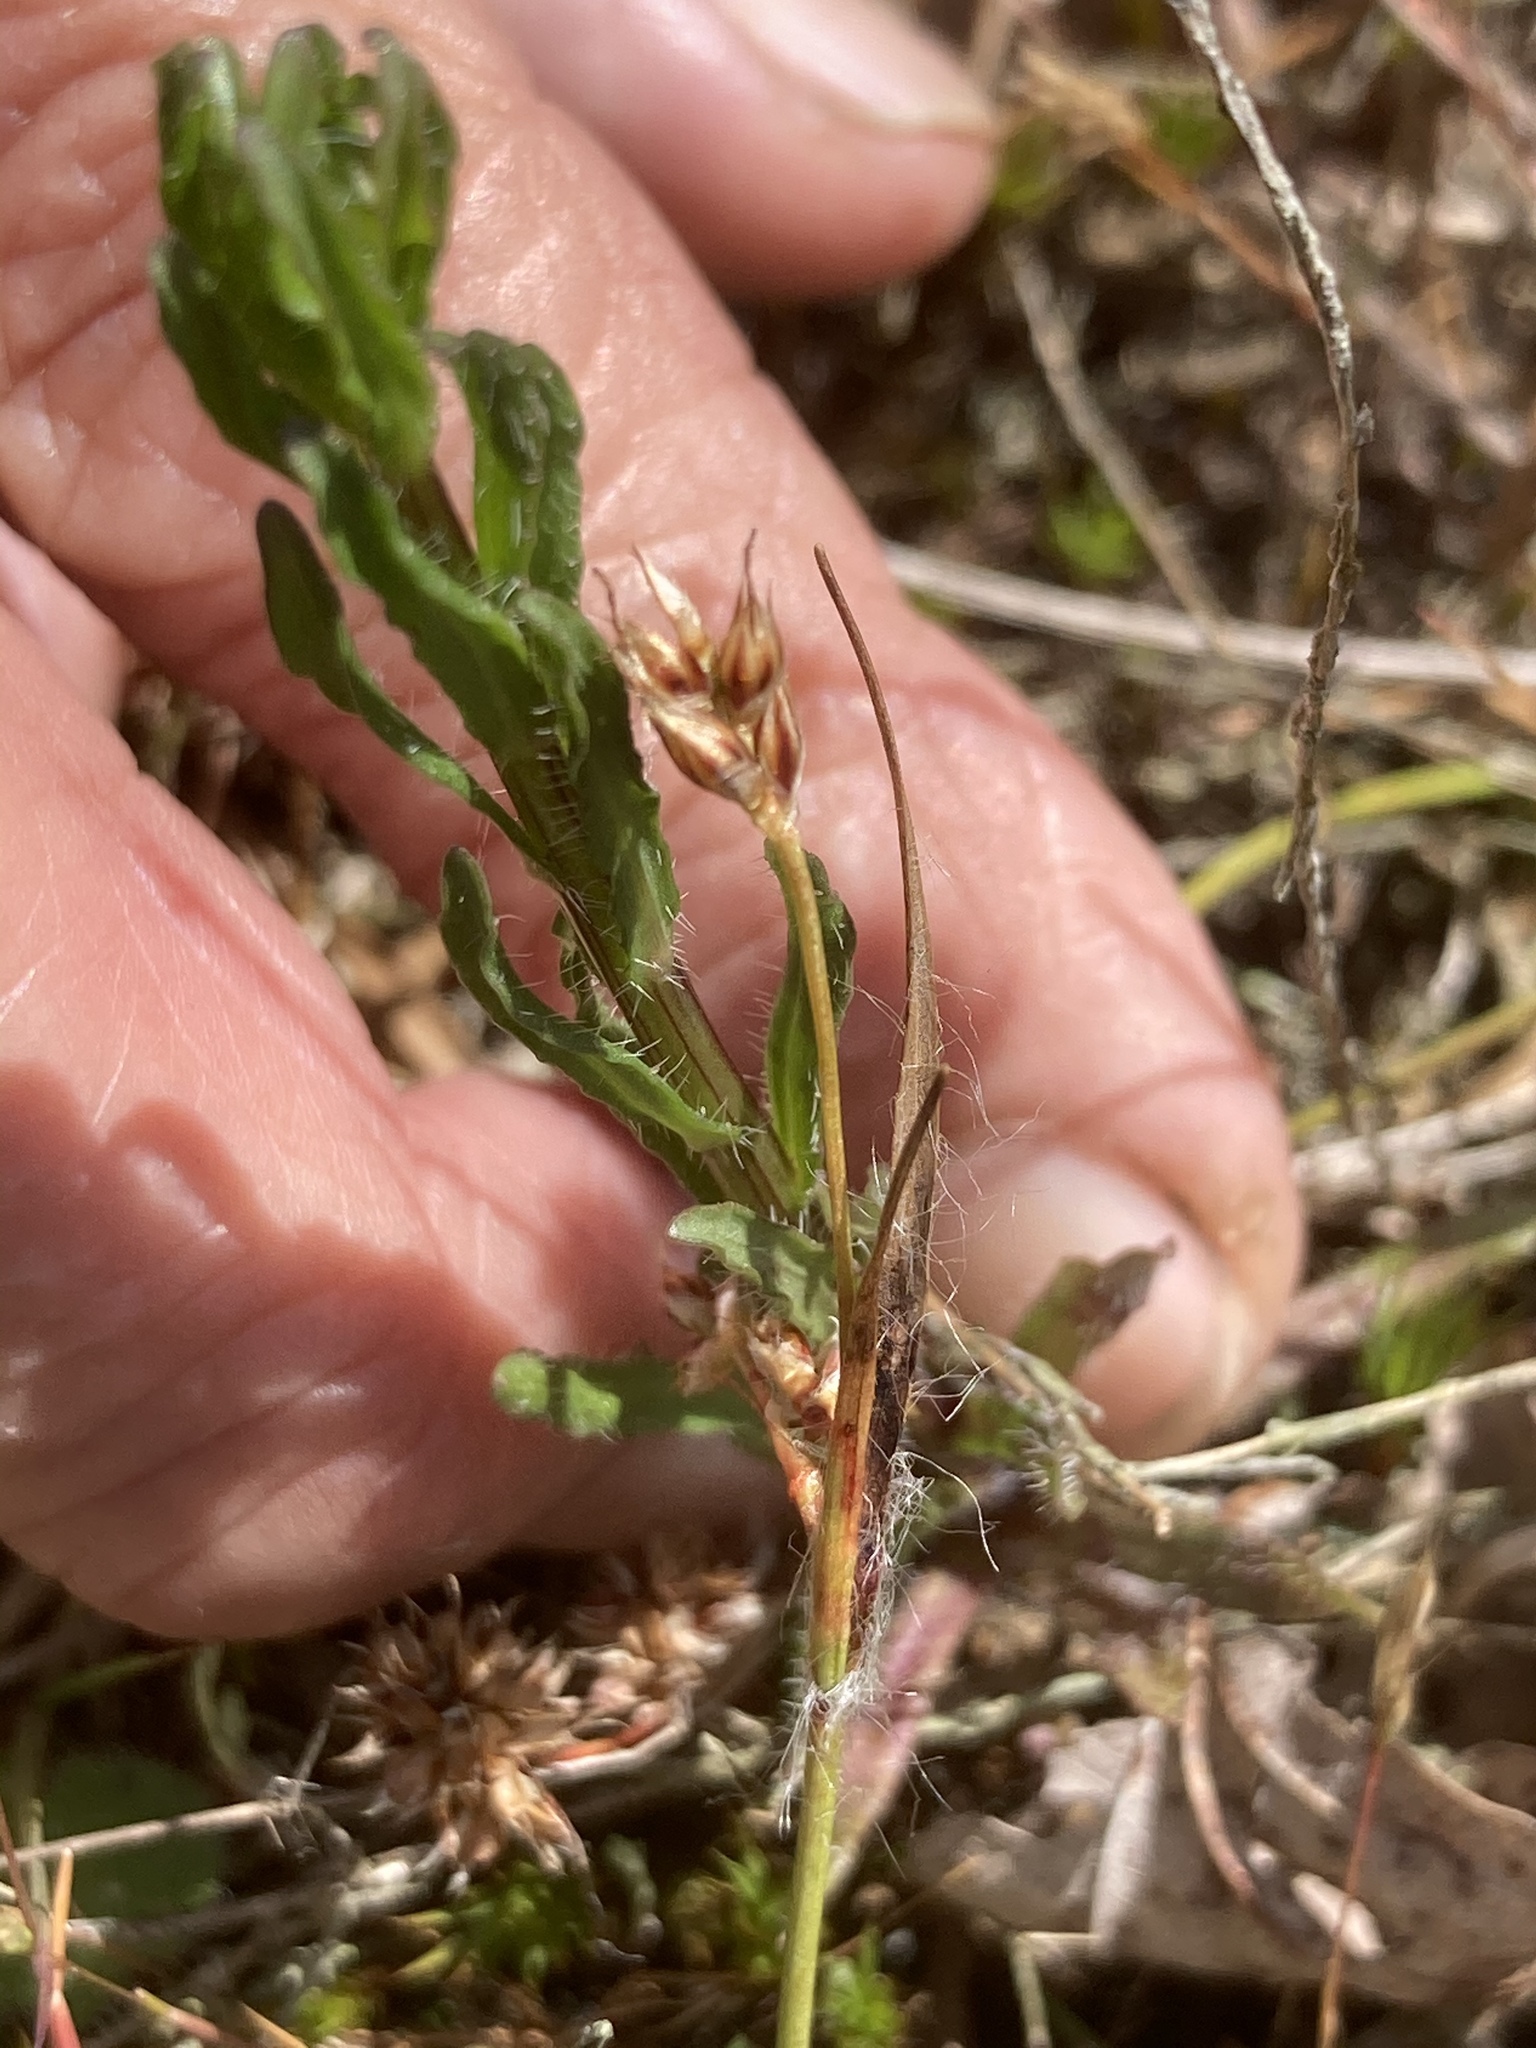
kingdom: Plantae
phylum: Tracheophyta
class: Magnoliopsida
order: Asterales
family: Campanulaceae
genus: Jasione
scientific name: Jasione montana
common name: Sheep's-bit
